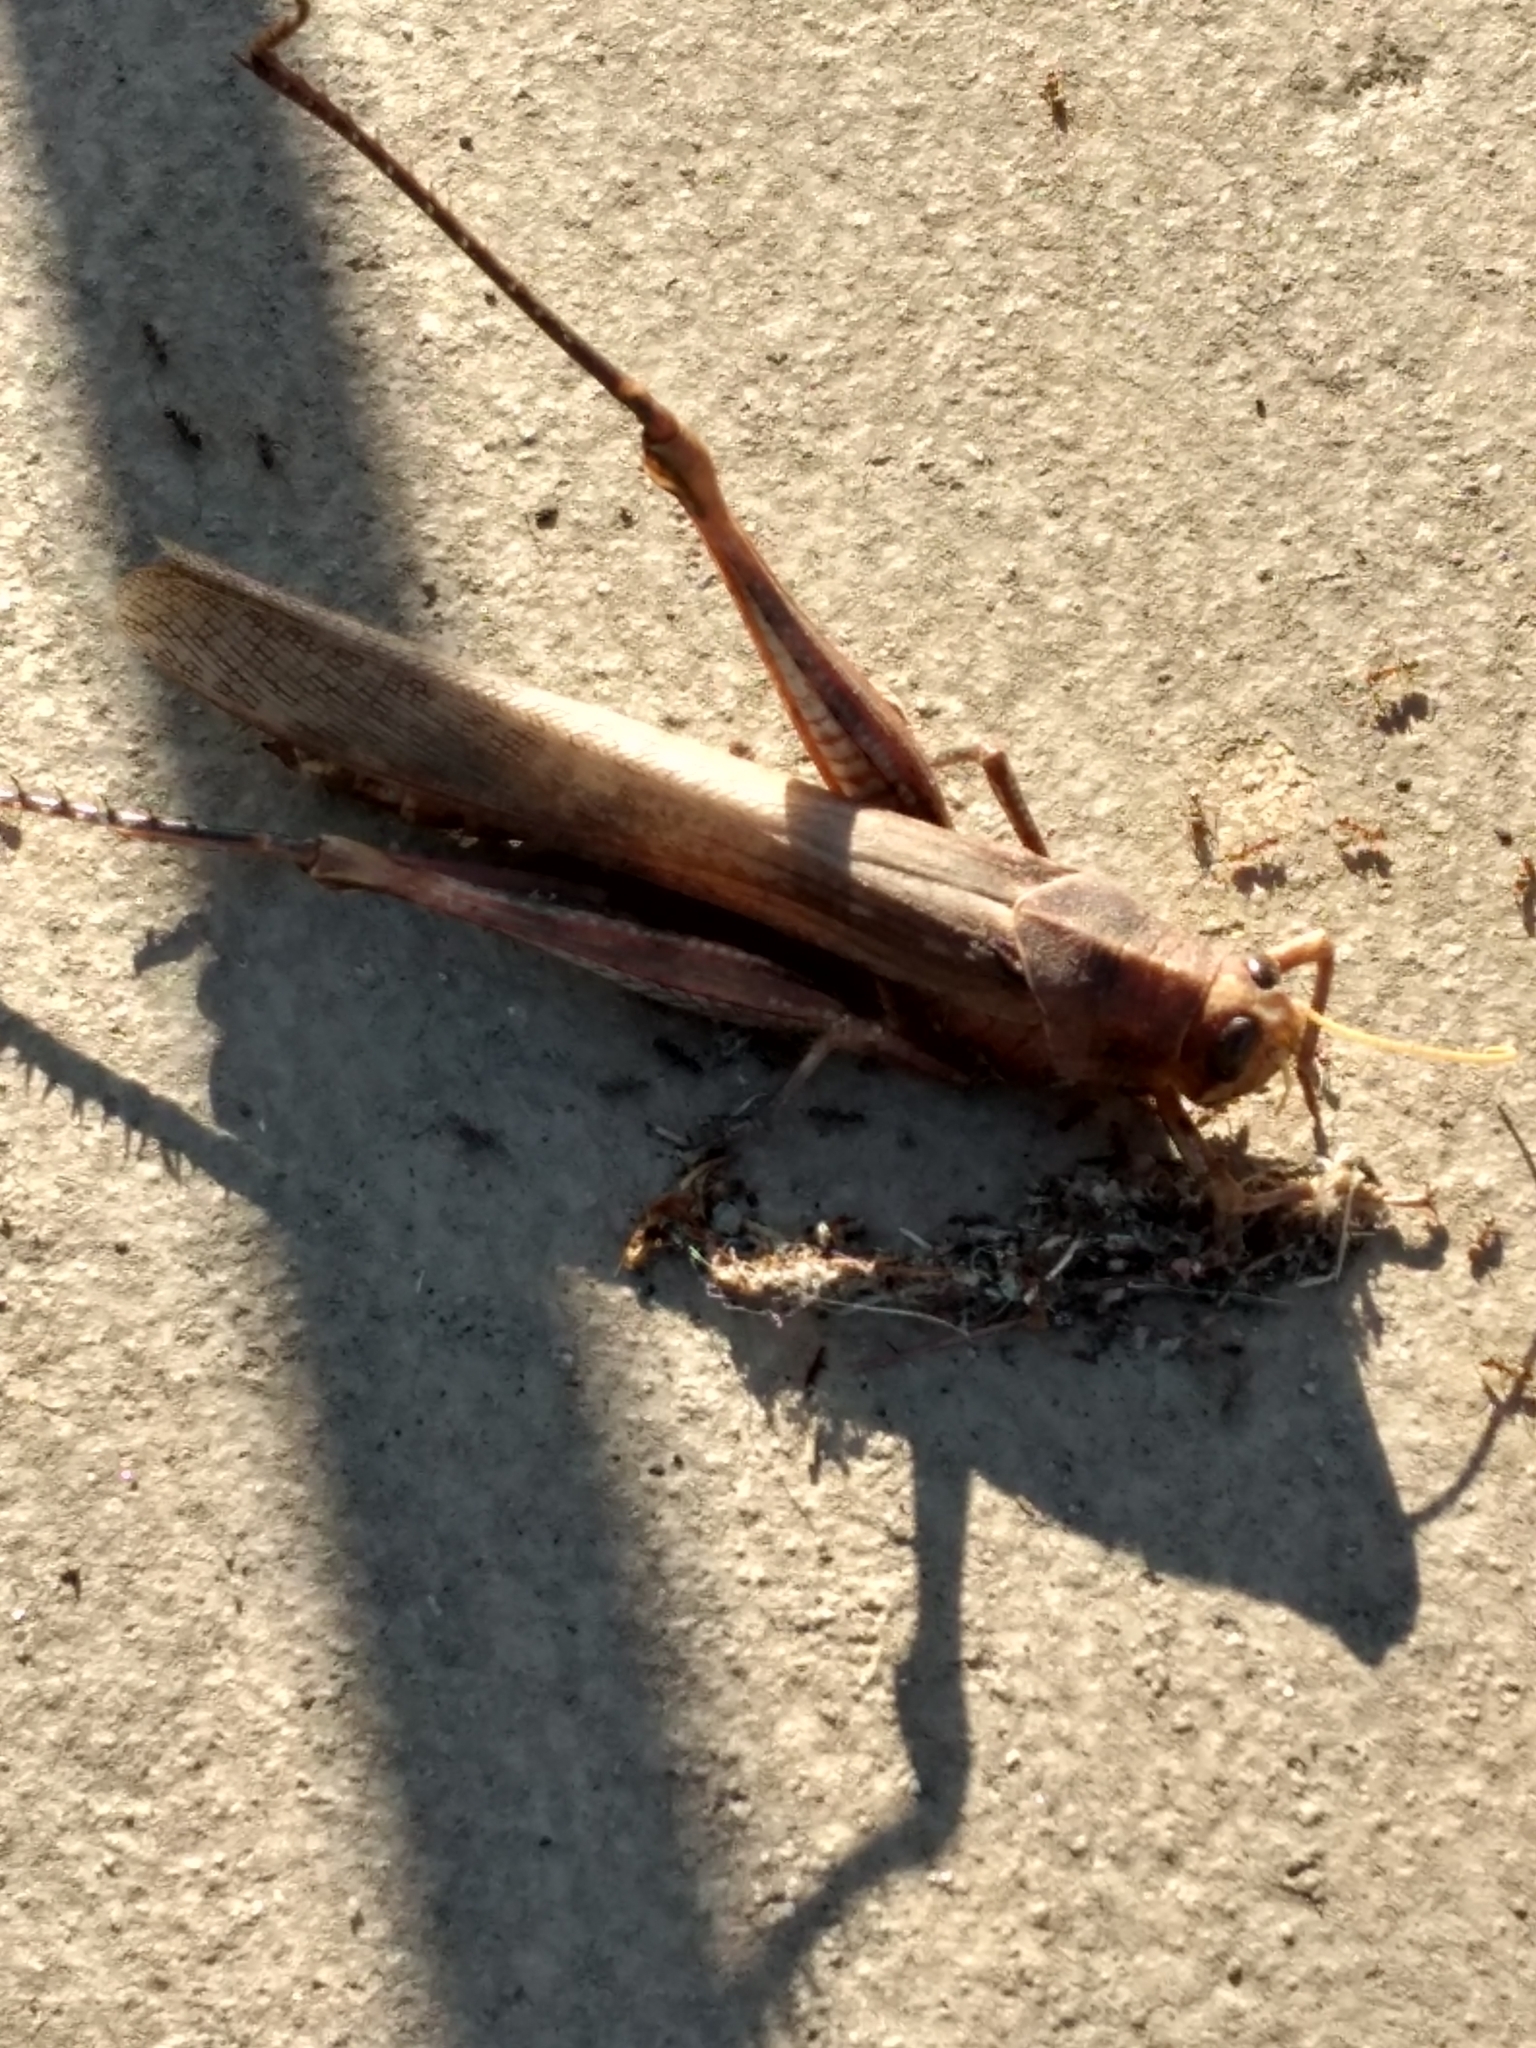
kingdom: Animalia
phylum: Arthropoda
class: Insecta
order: Orthoptera
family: Acrididae
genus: Schistocerca
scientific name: Schistocerca nitens
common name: Vagrant grasshopper
